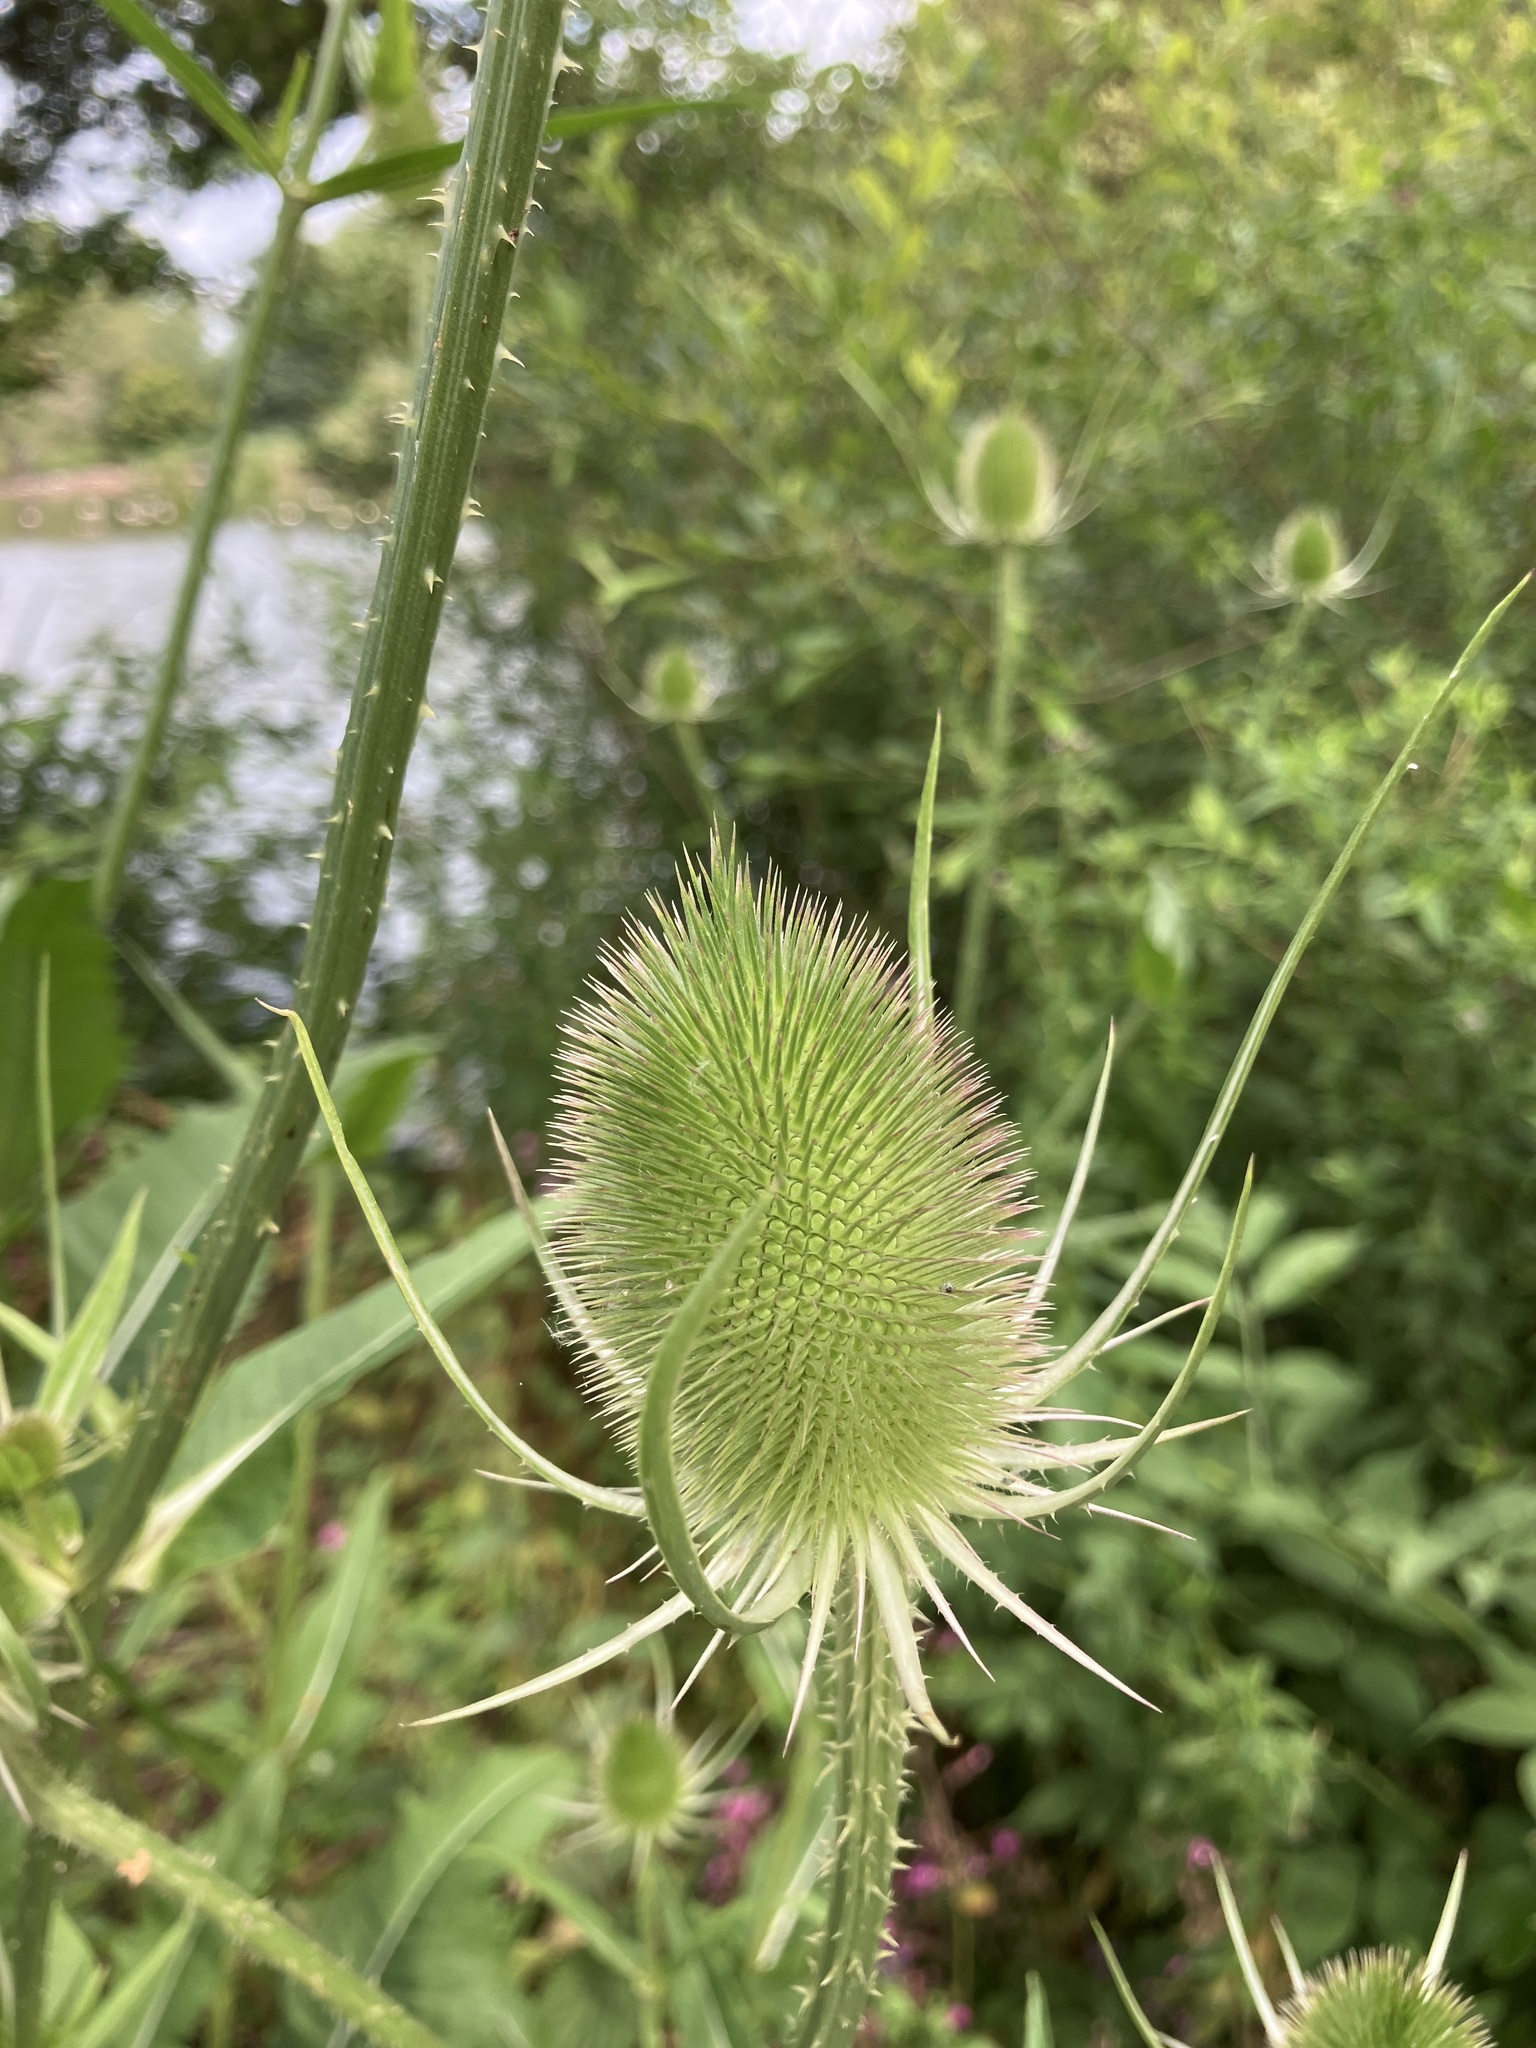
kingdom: Plantae
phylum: Tracheophyta
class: Magnoliopsida
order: Dipsacales
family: Caprifoliaceae
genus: Dipsacus
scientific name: Dipsacus fullonum
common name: Teasel
